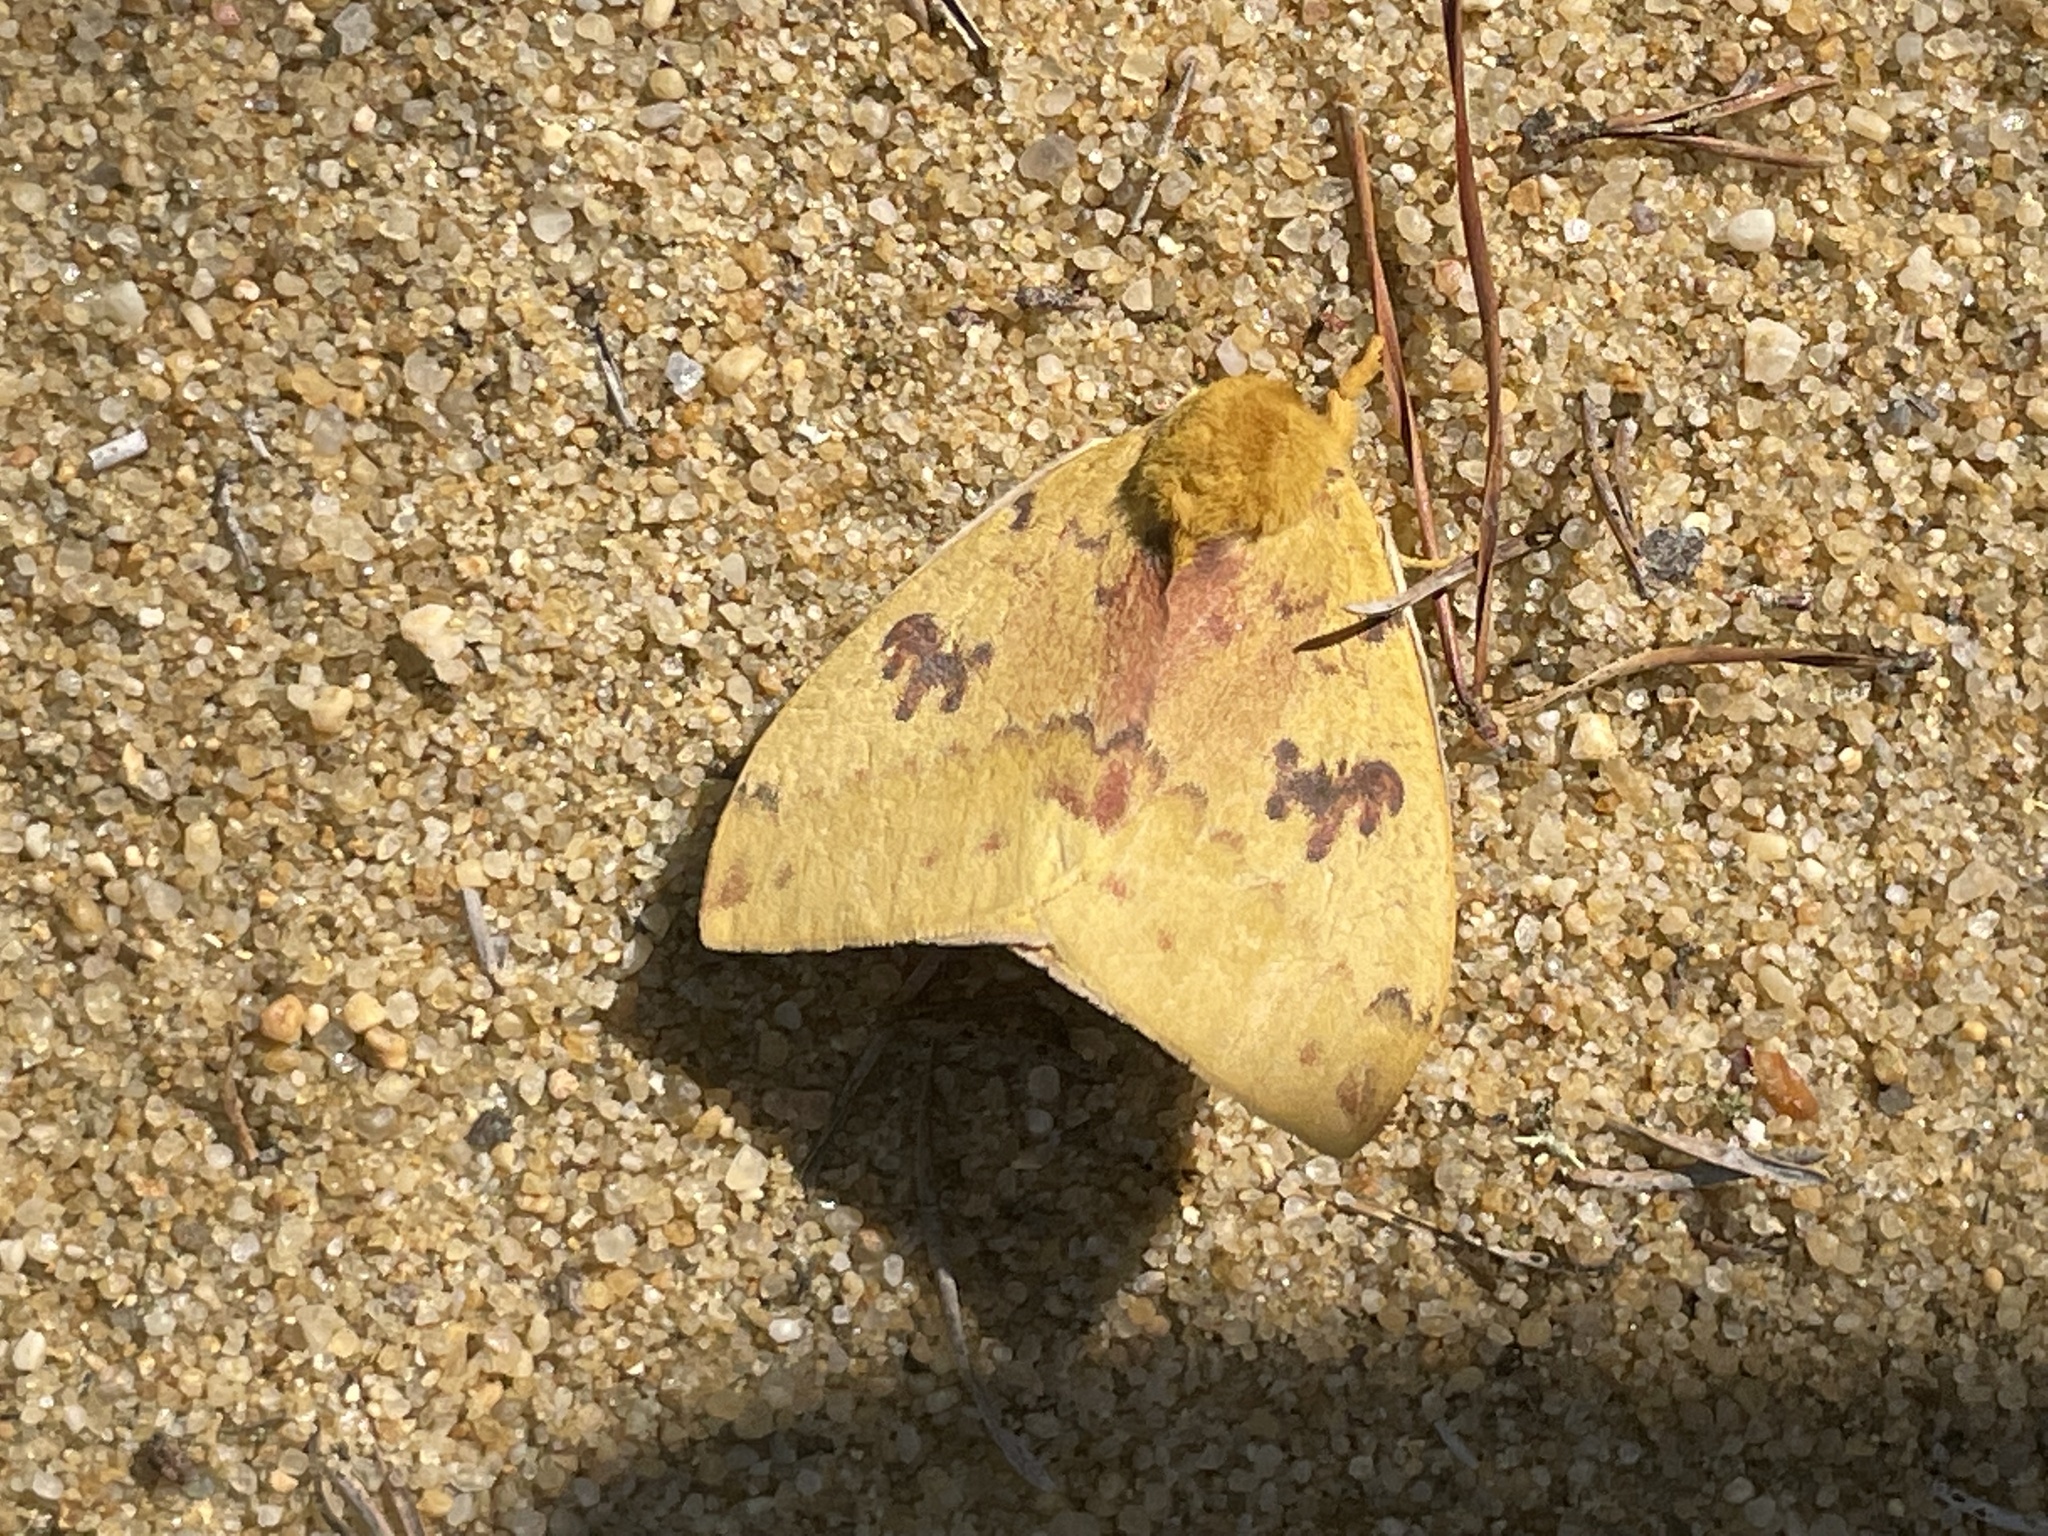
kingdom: Animalia
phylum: Arthropoda
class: Insecta
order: Lepidoptera
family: Saturniidae
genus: Automeris
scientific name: Automeris io
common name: Io moth
